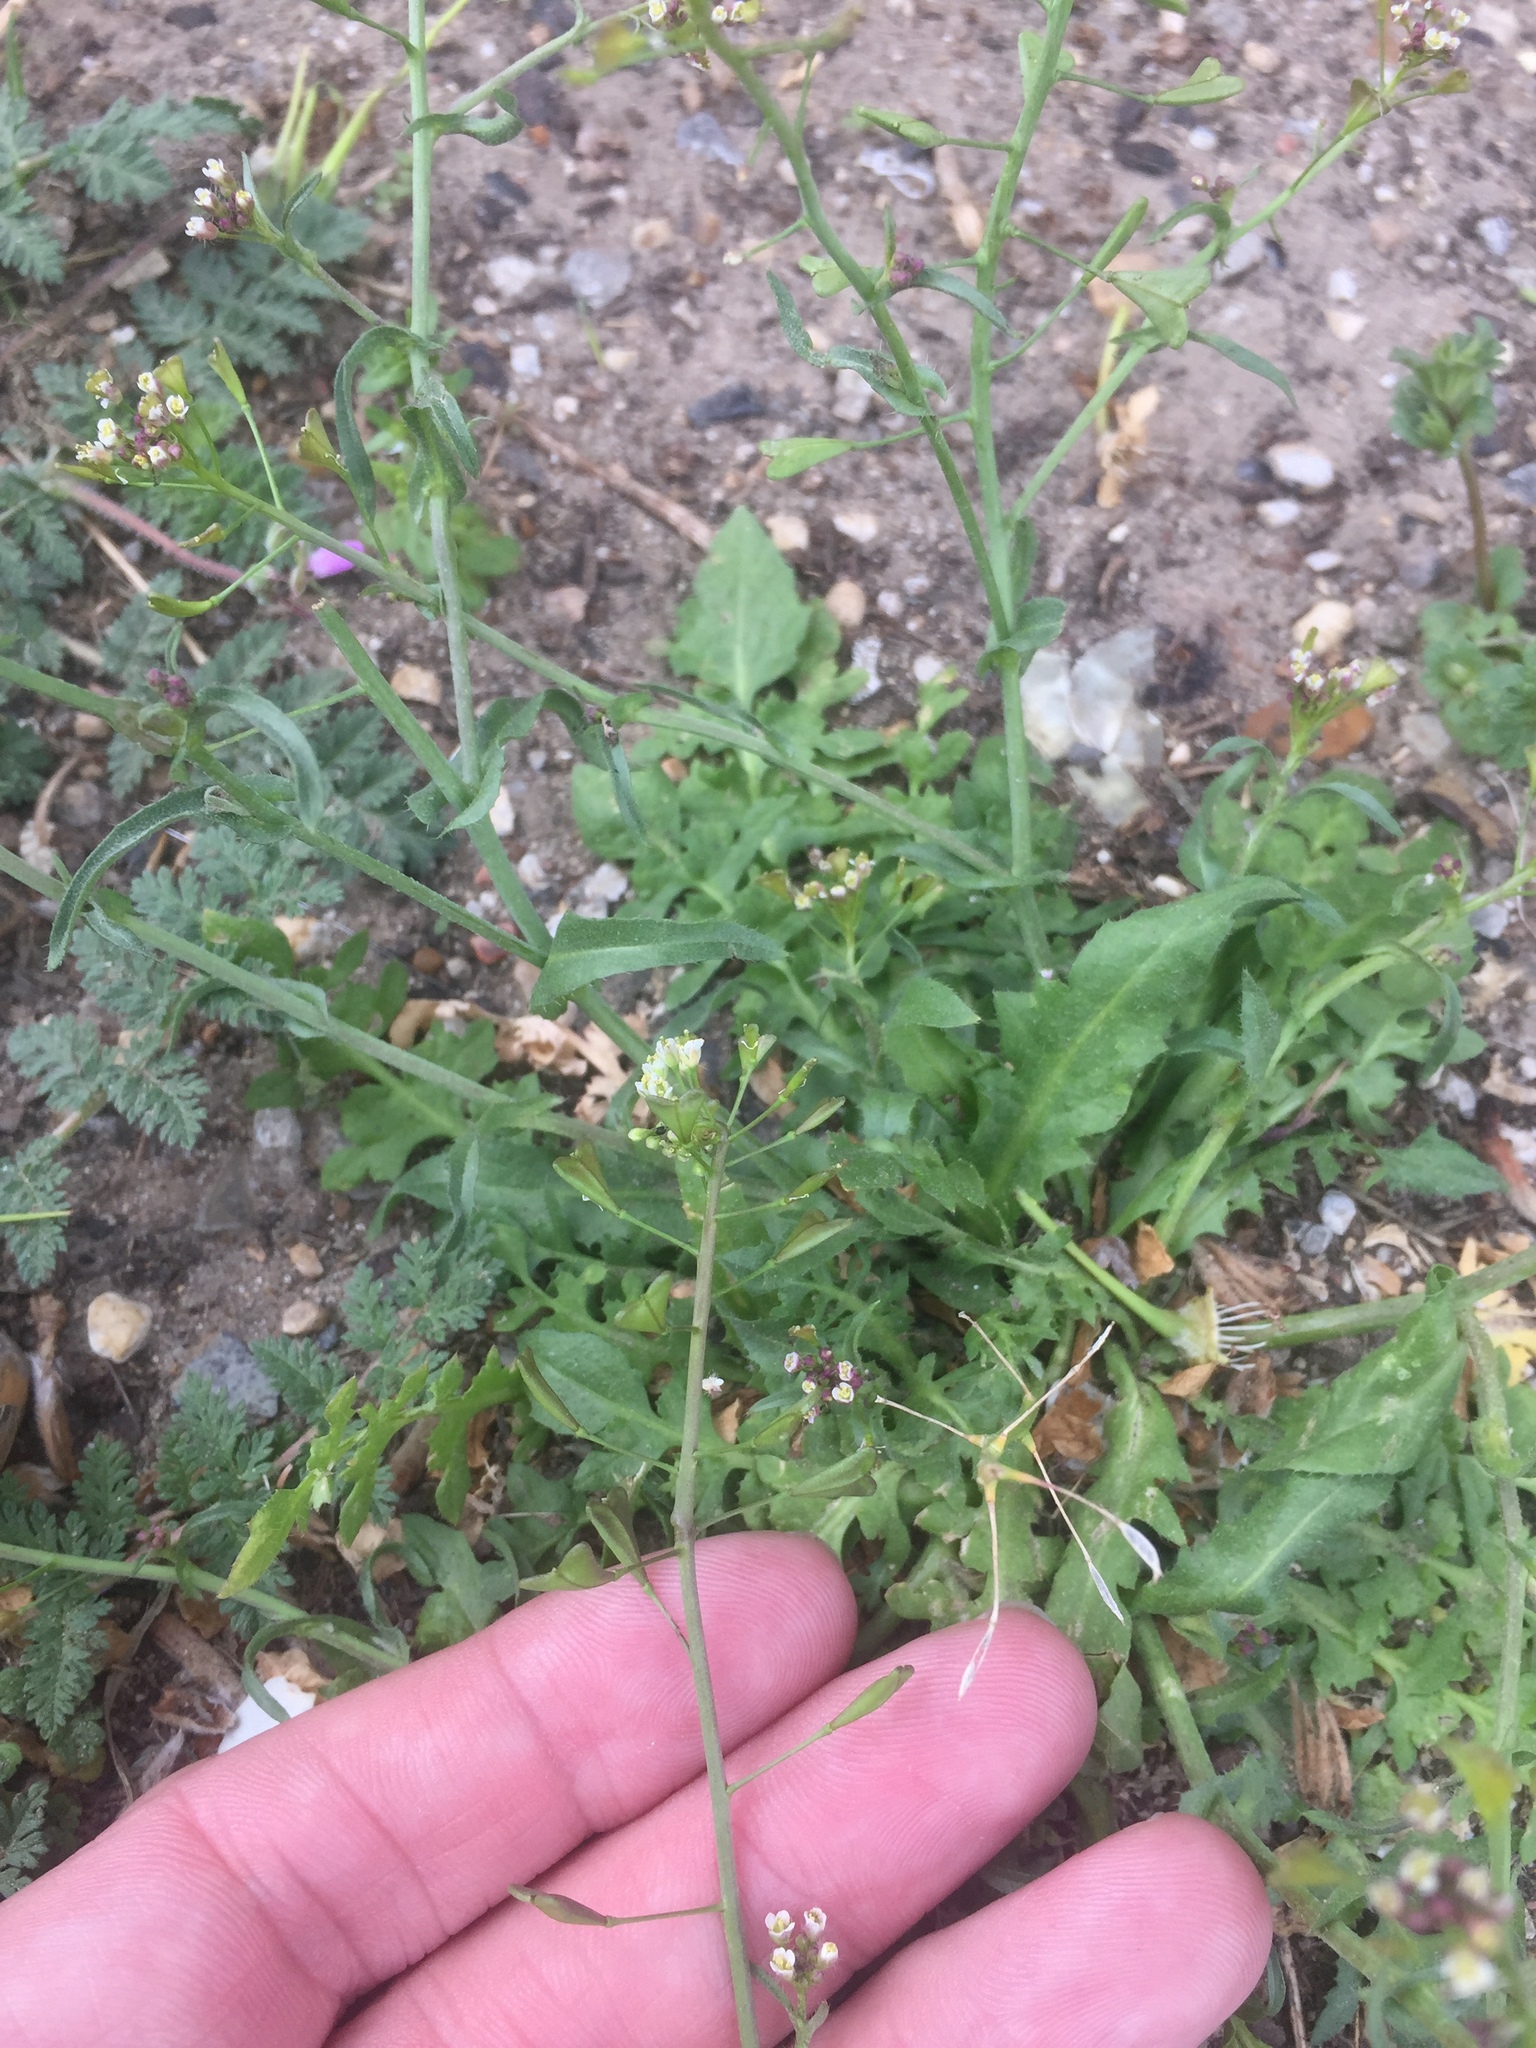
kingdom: Plantae
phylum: Tracheophyta
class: Magnoliopsida
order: Brassicales
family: Brassicaceae
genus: Capsella
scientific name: Capsella bursa-pastoris
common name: Shepherd's purse
